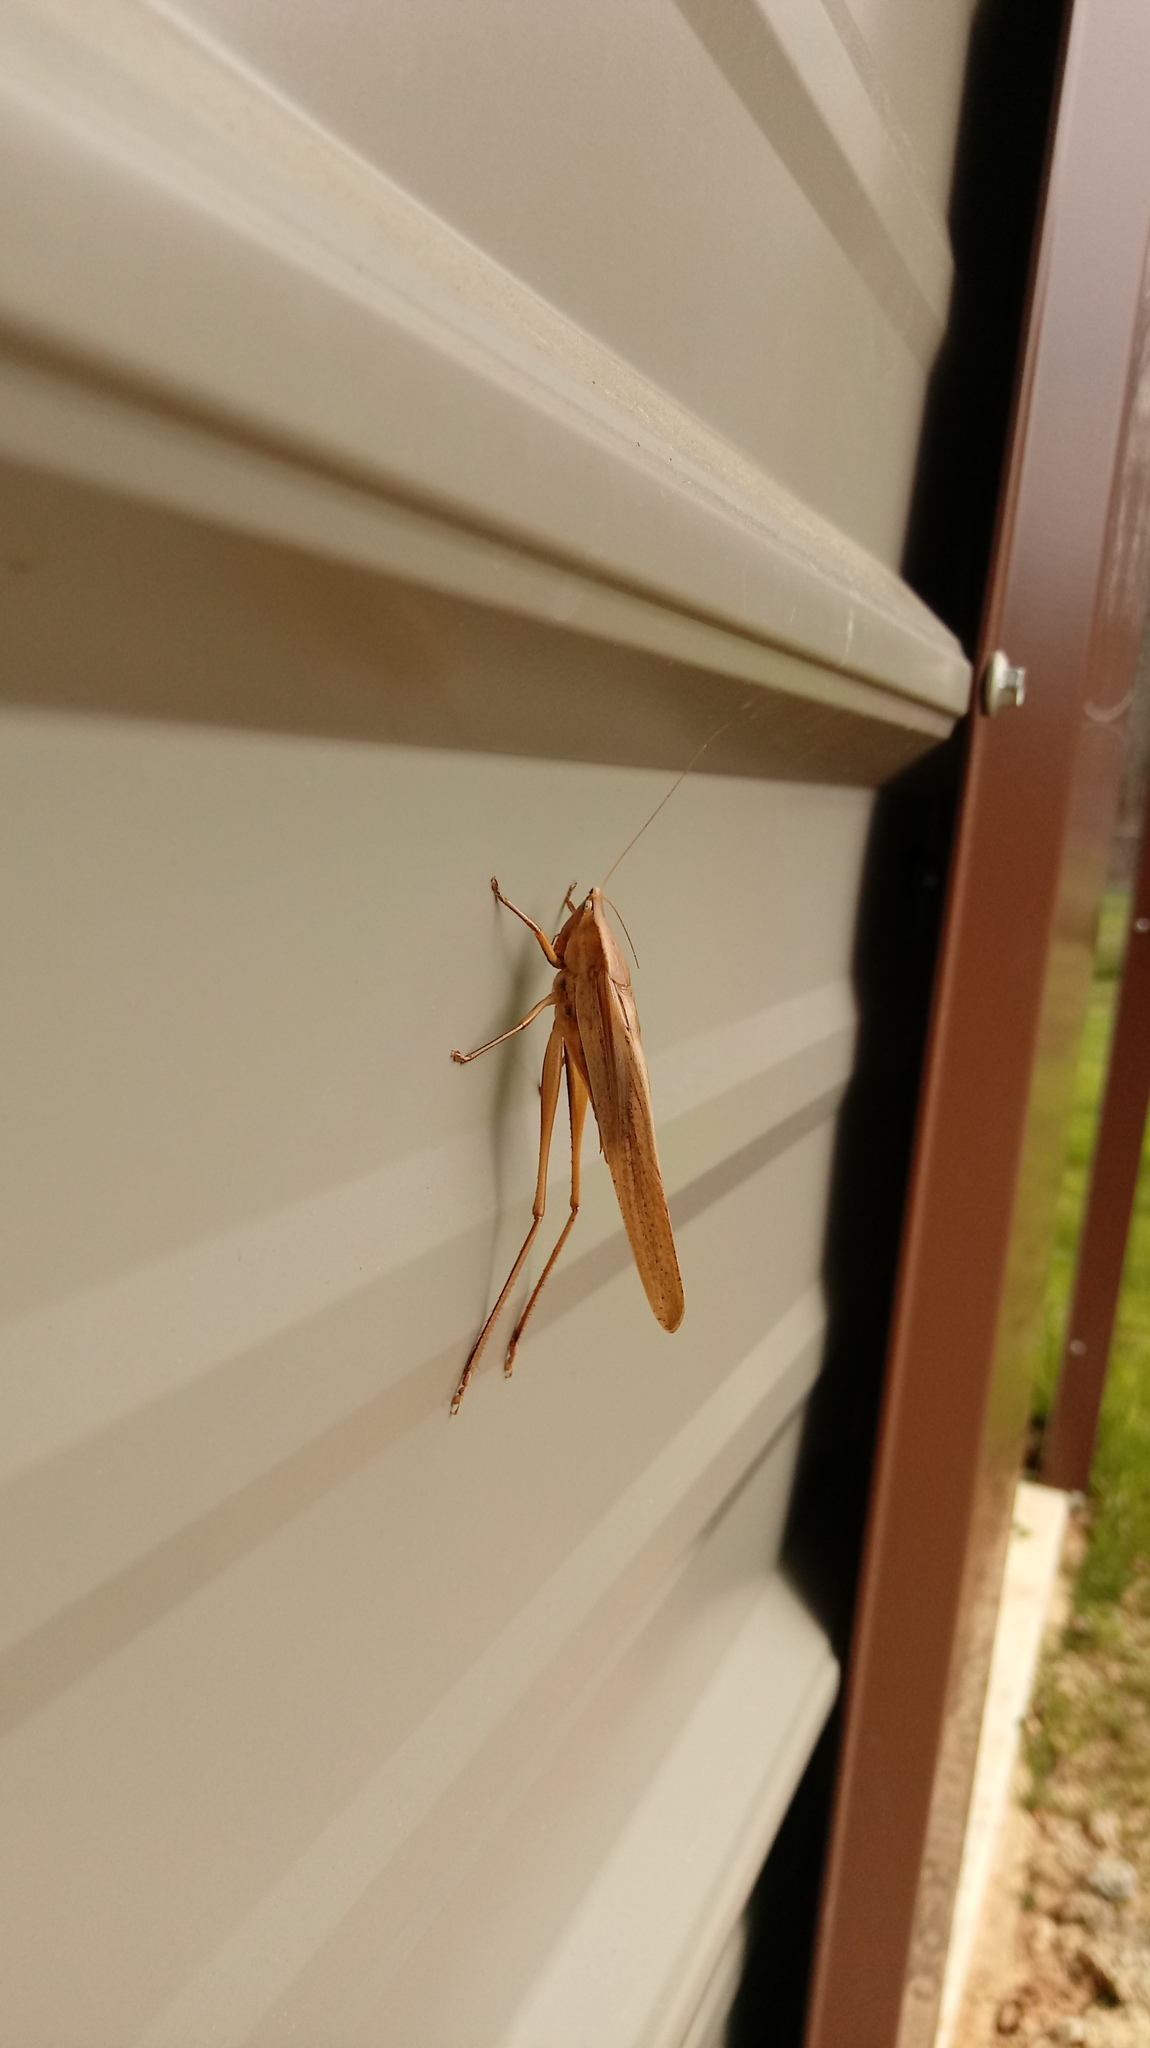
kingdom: Animalia
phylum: Arthropoda
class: Insecta
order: Orthoptera
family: Tettigoniidae
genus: Neoconocephalus
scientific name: Neoconocephalus triops
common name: Broad-tipped conehead
